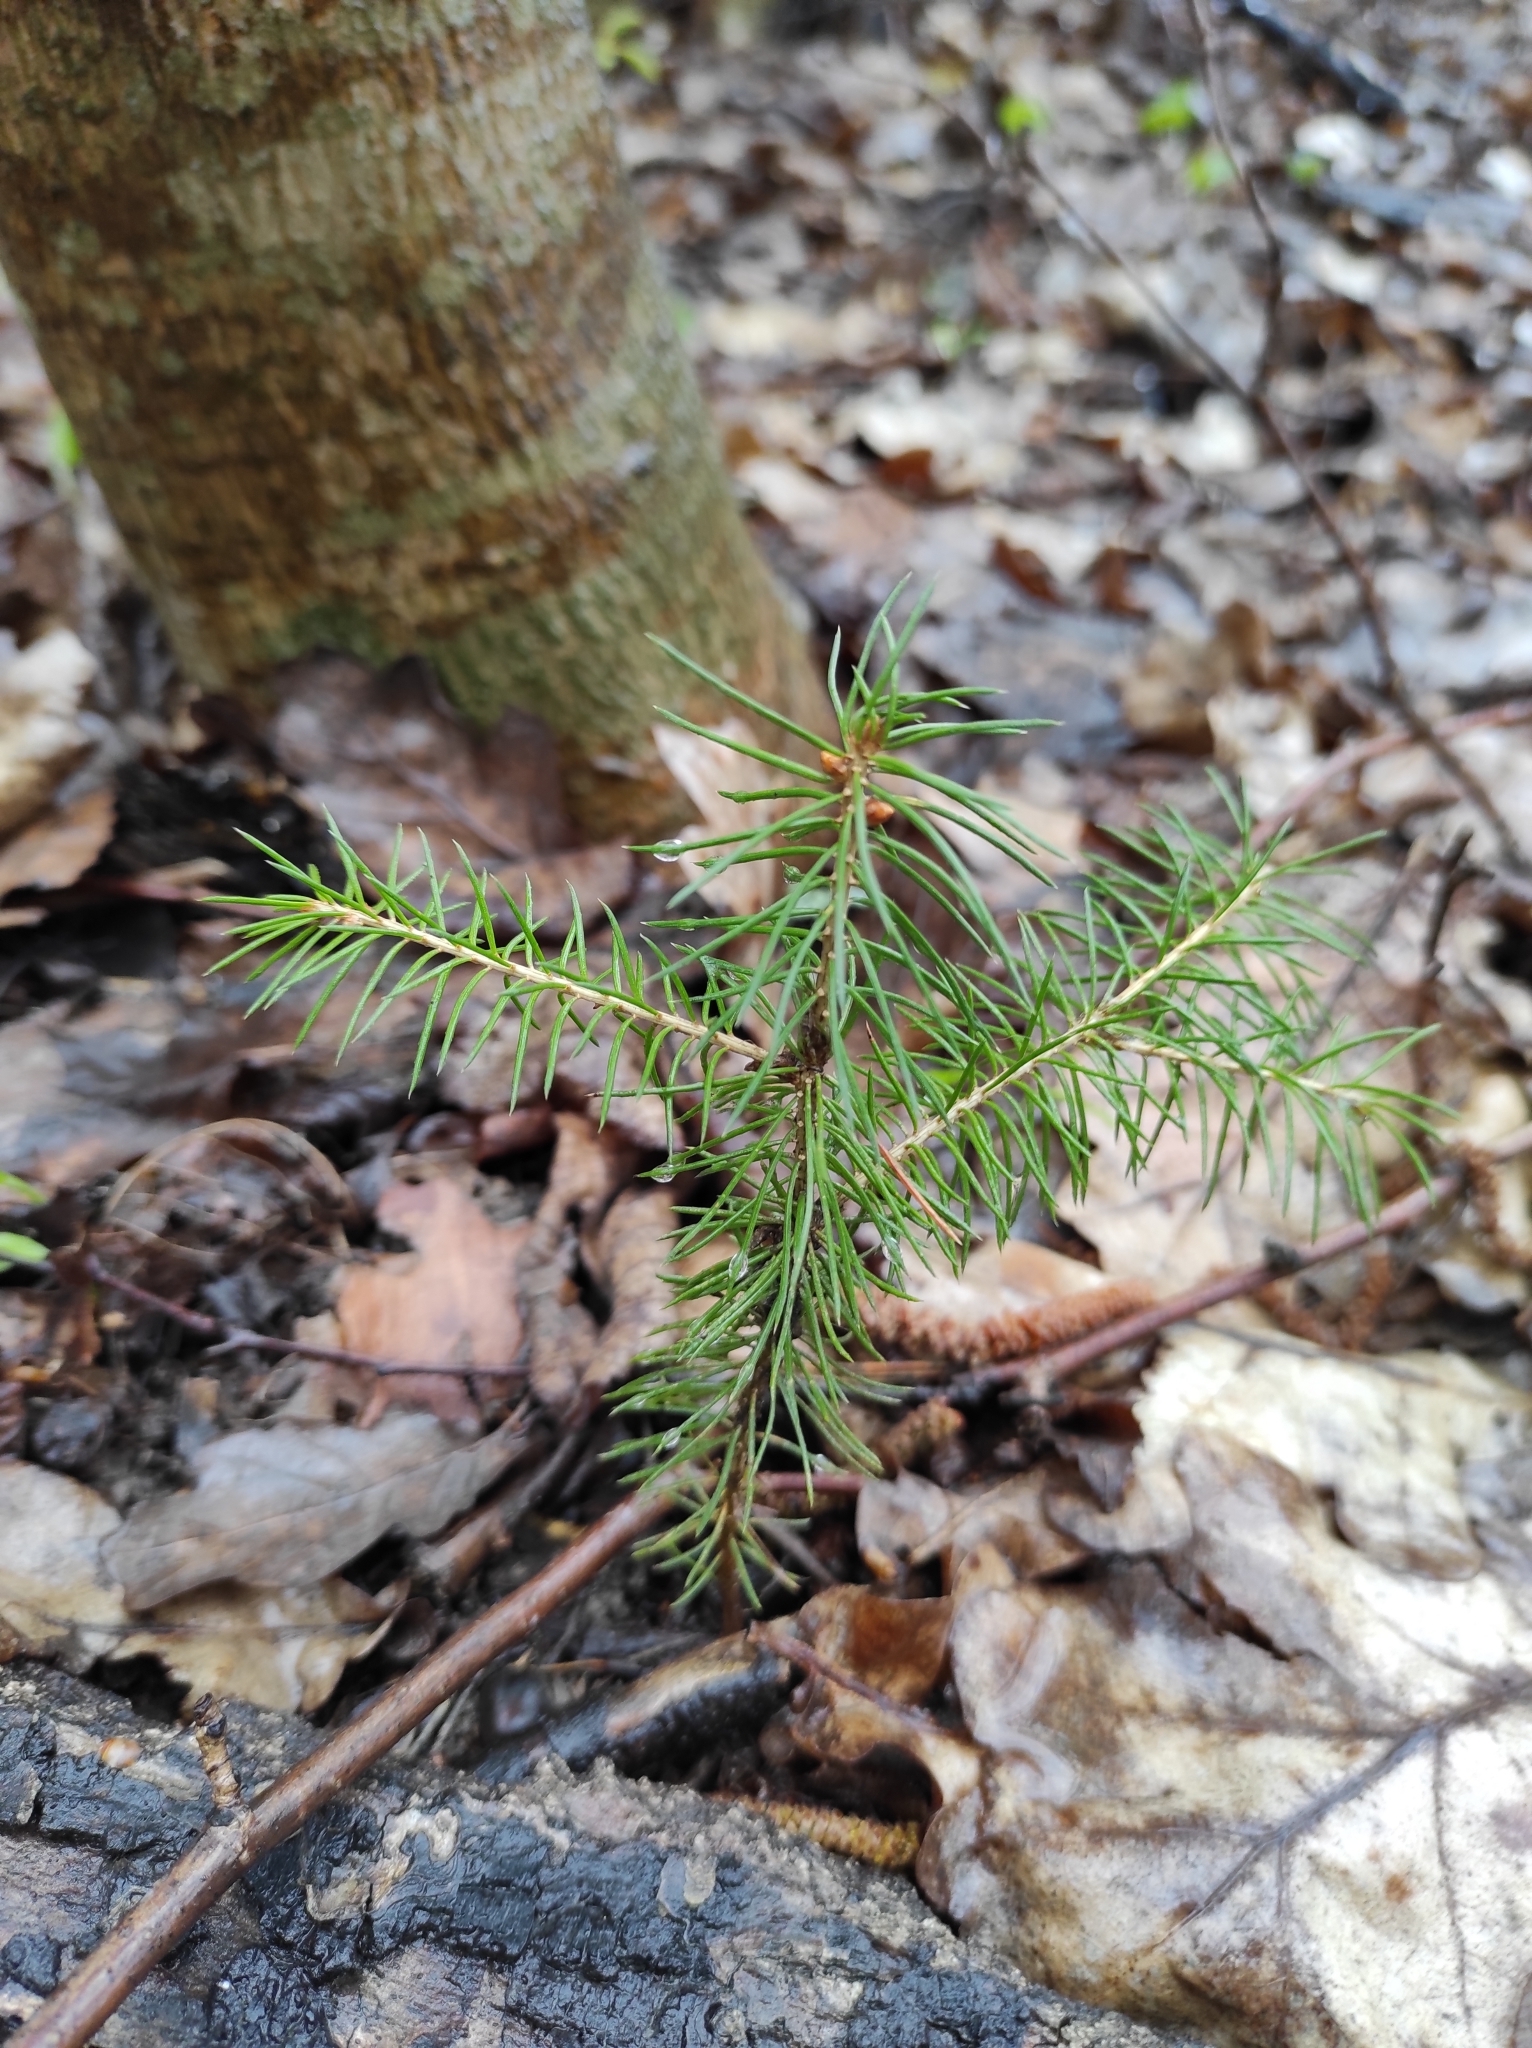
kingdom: Plantae
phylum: Tracheophyta
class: Pinopsida
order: Pinales
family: Pinaceae
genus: Picea
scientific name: Picea abies
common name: Norway spruce
